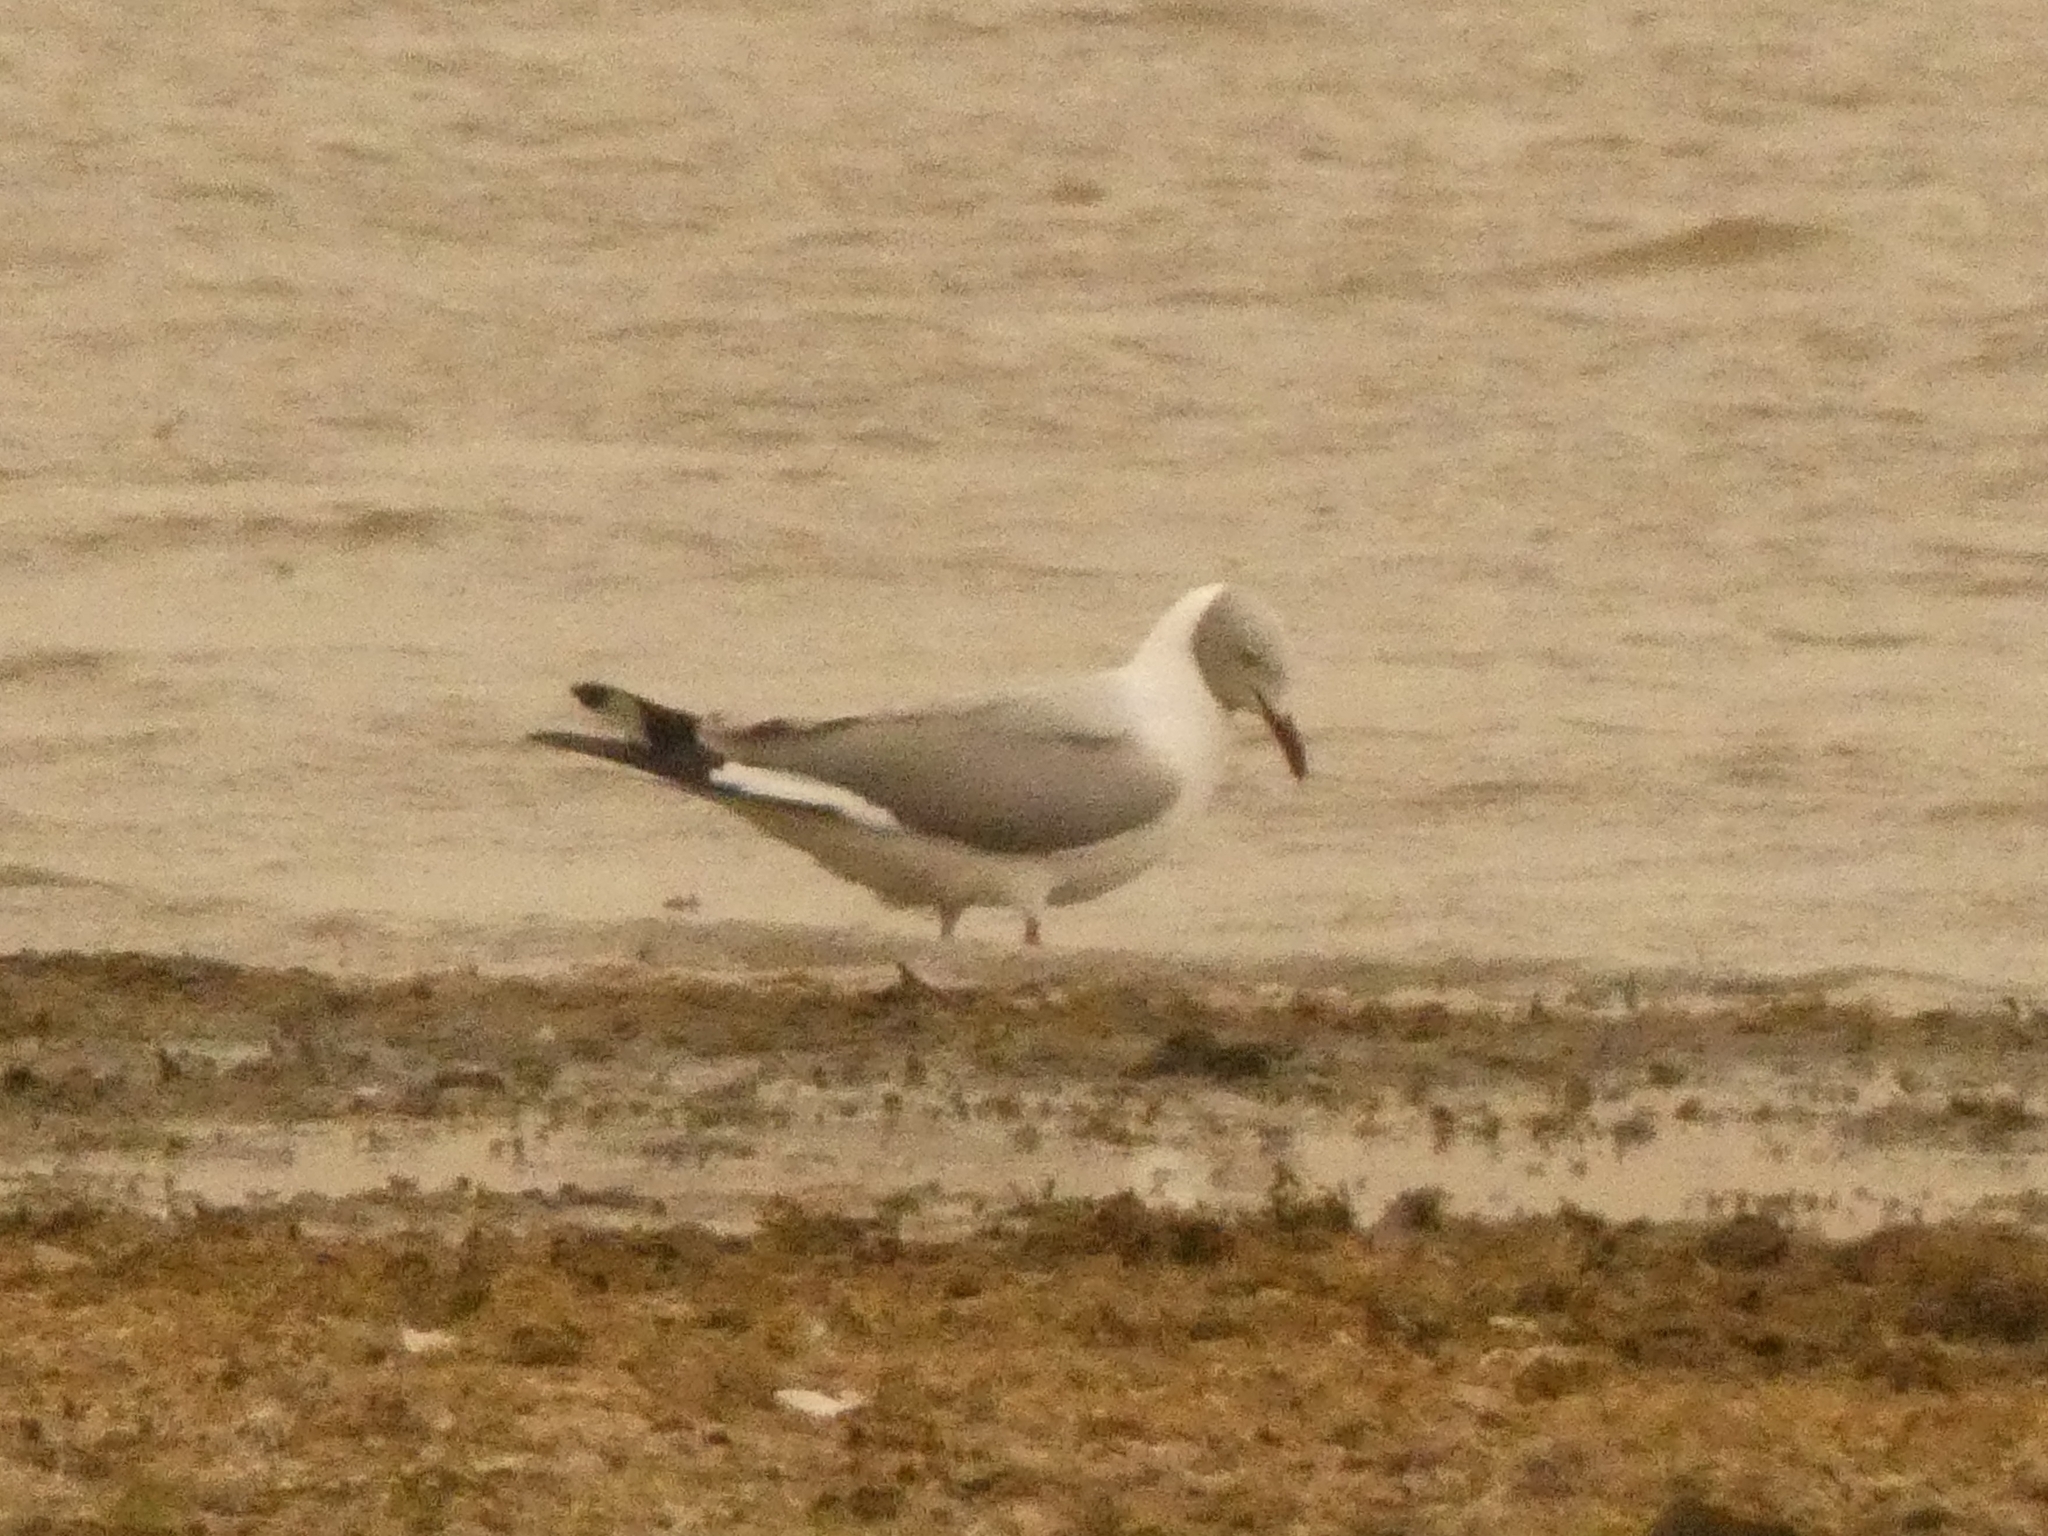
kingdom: Animalia
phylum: Chordata
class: Aves
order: Charadriiformes
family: Laridae
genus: Chroicocephalus
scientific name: Chroicocephalus cirrocephalus
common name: Grey-headed gull
